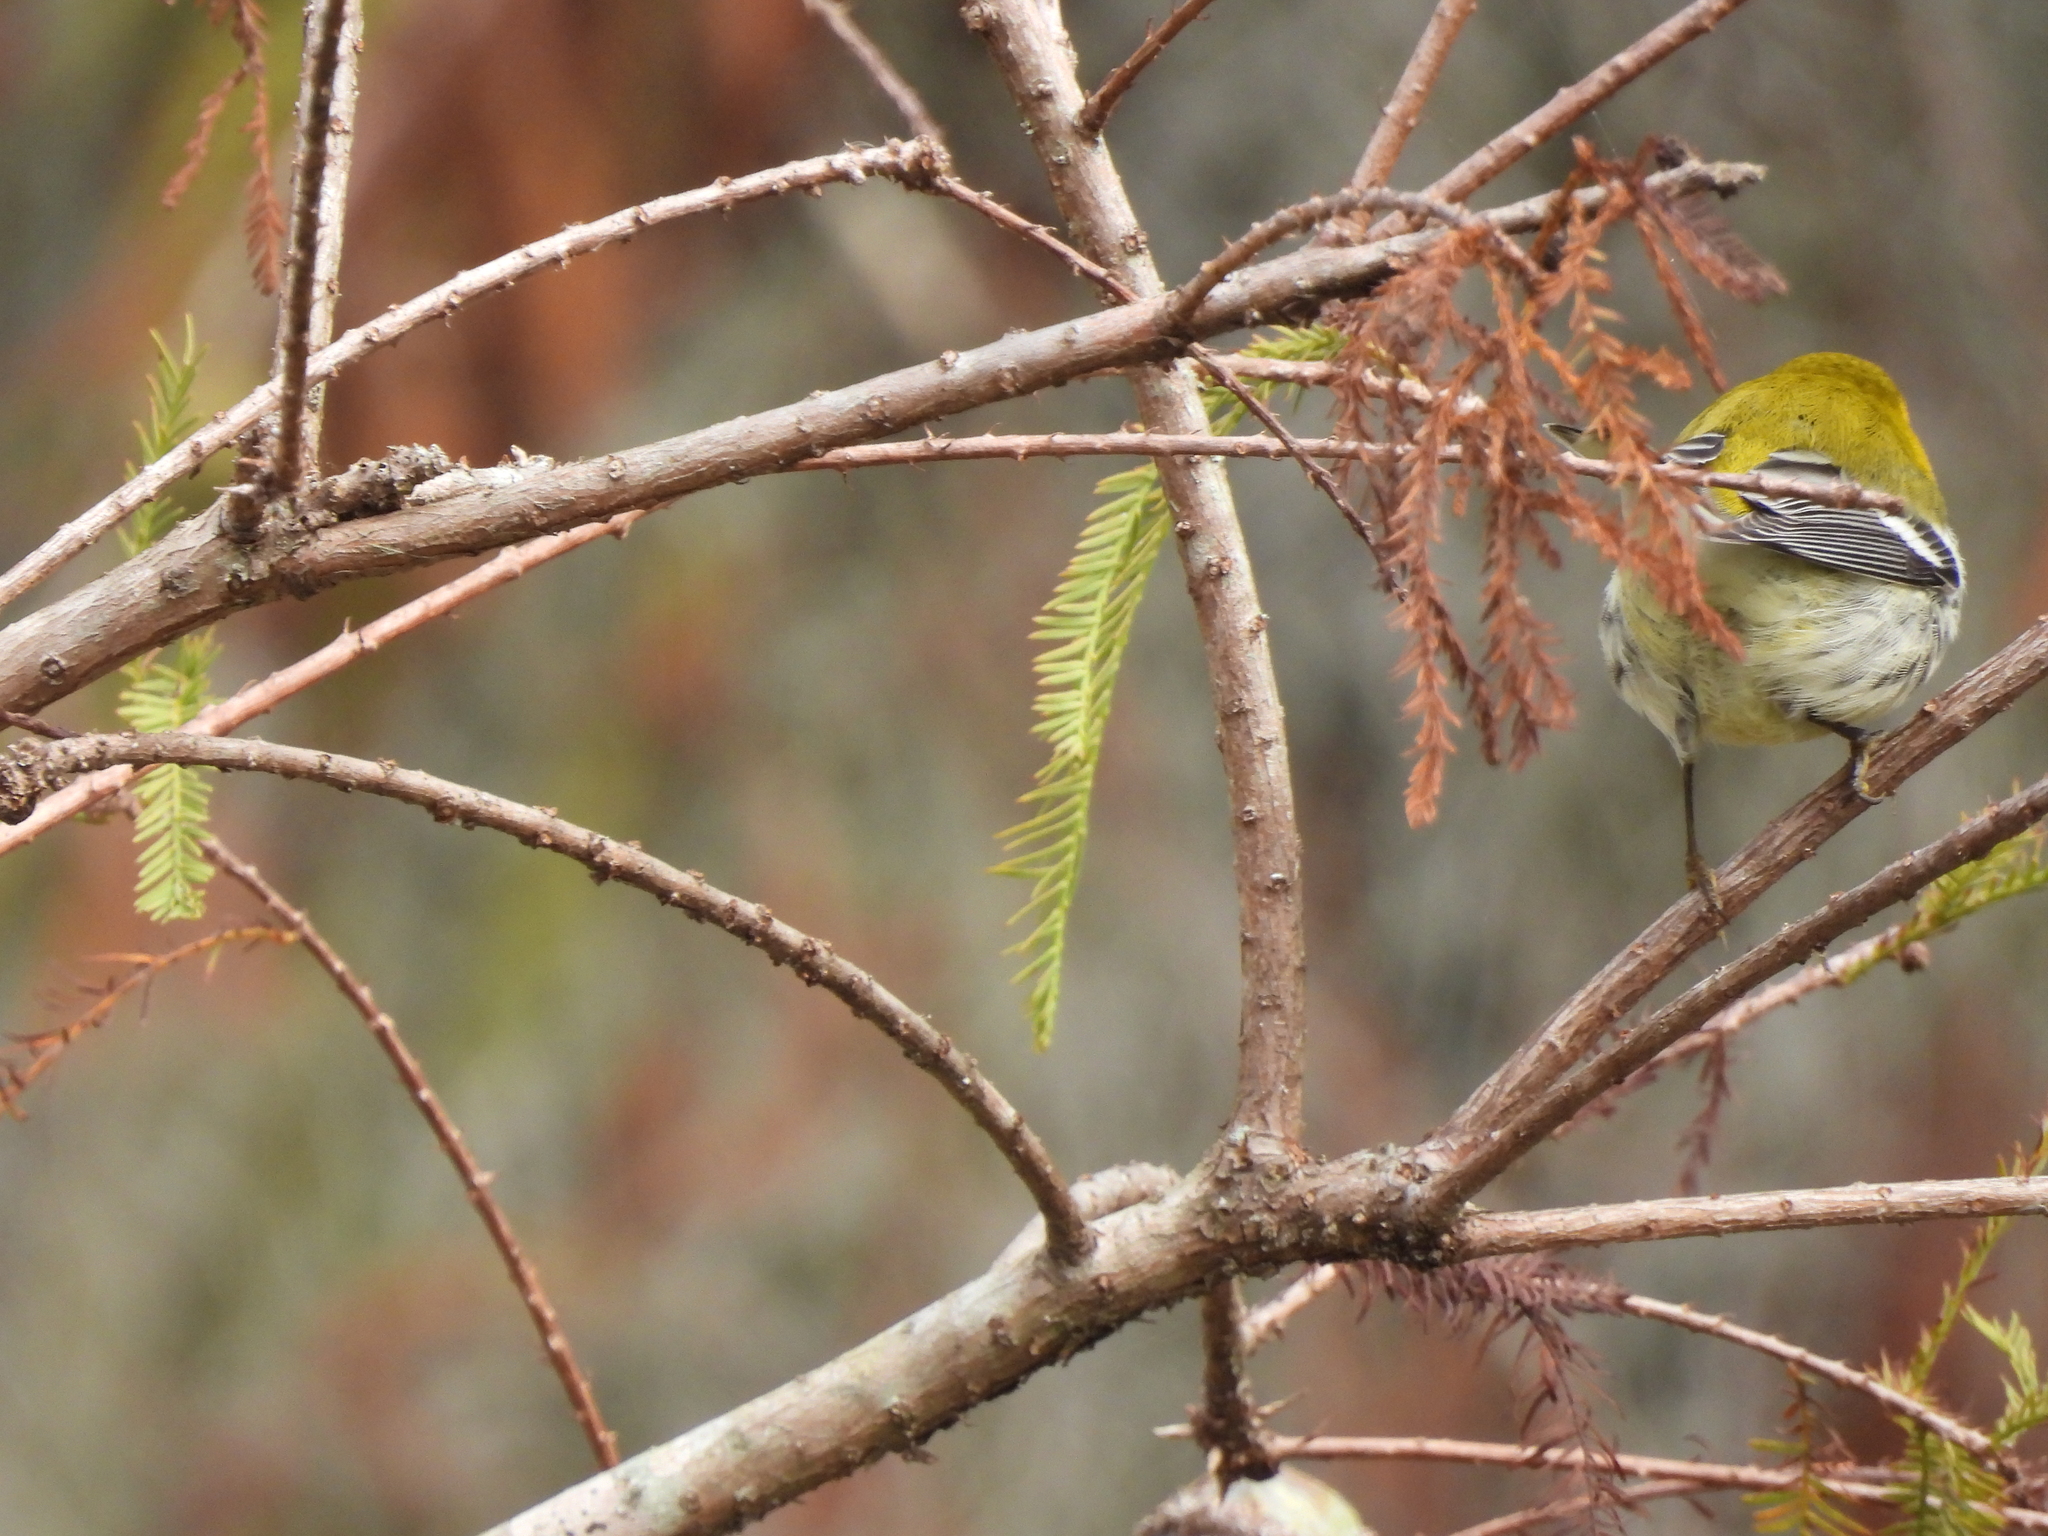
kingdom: Animalia
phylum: Chordata
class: Aves
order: Passeriformes
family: Parulidae
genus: Setophaga
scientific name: Setophaga virens
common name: Black-throated green warbler
